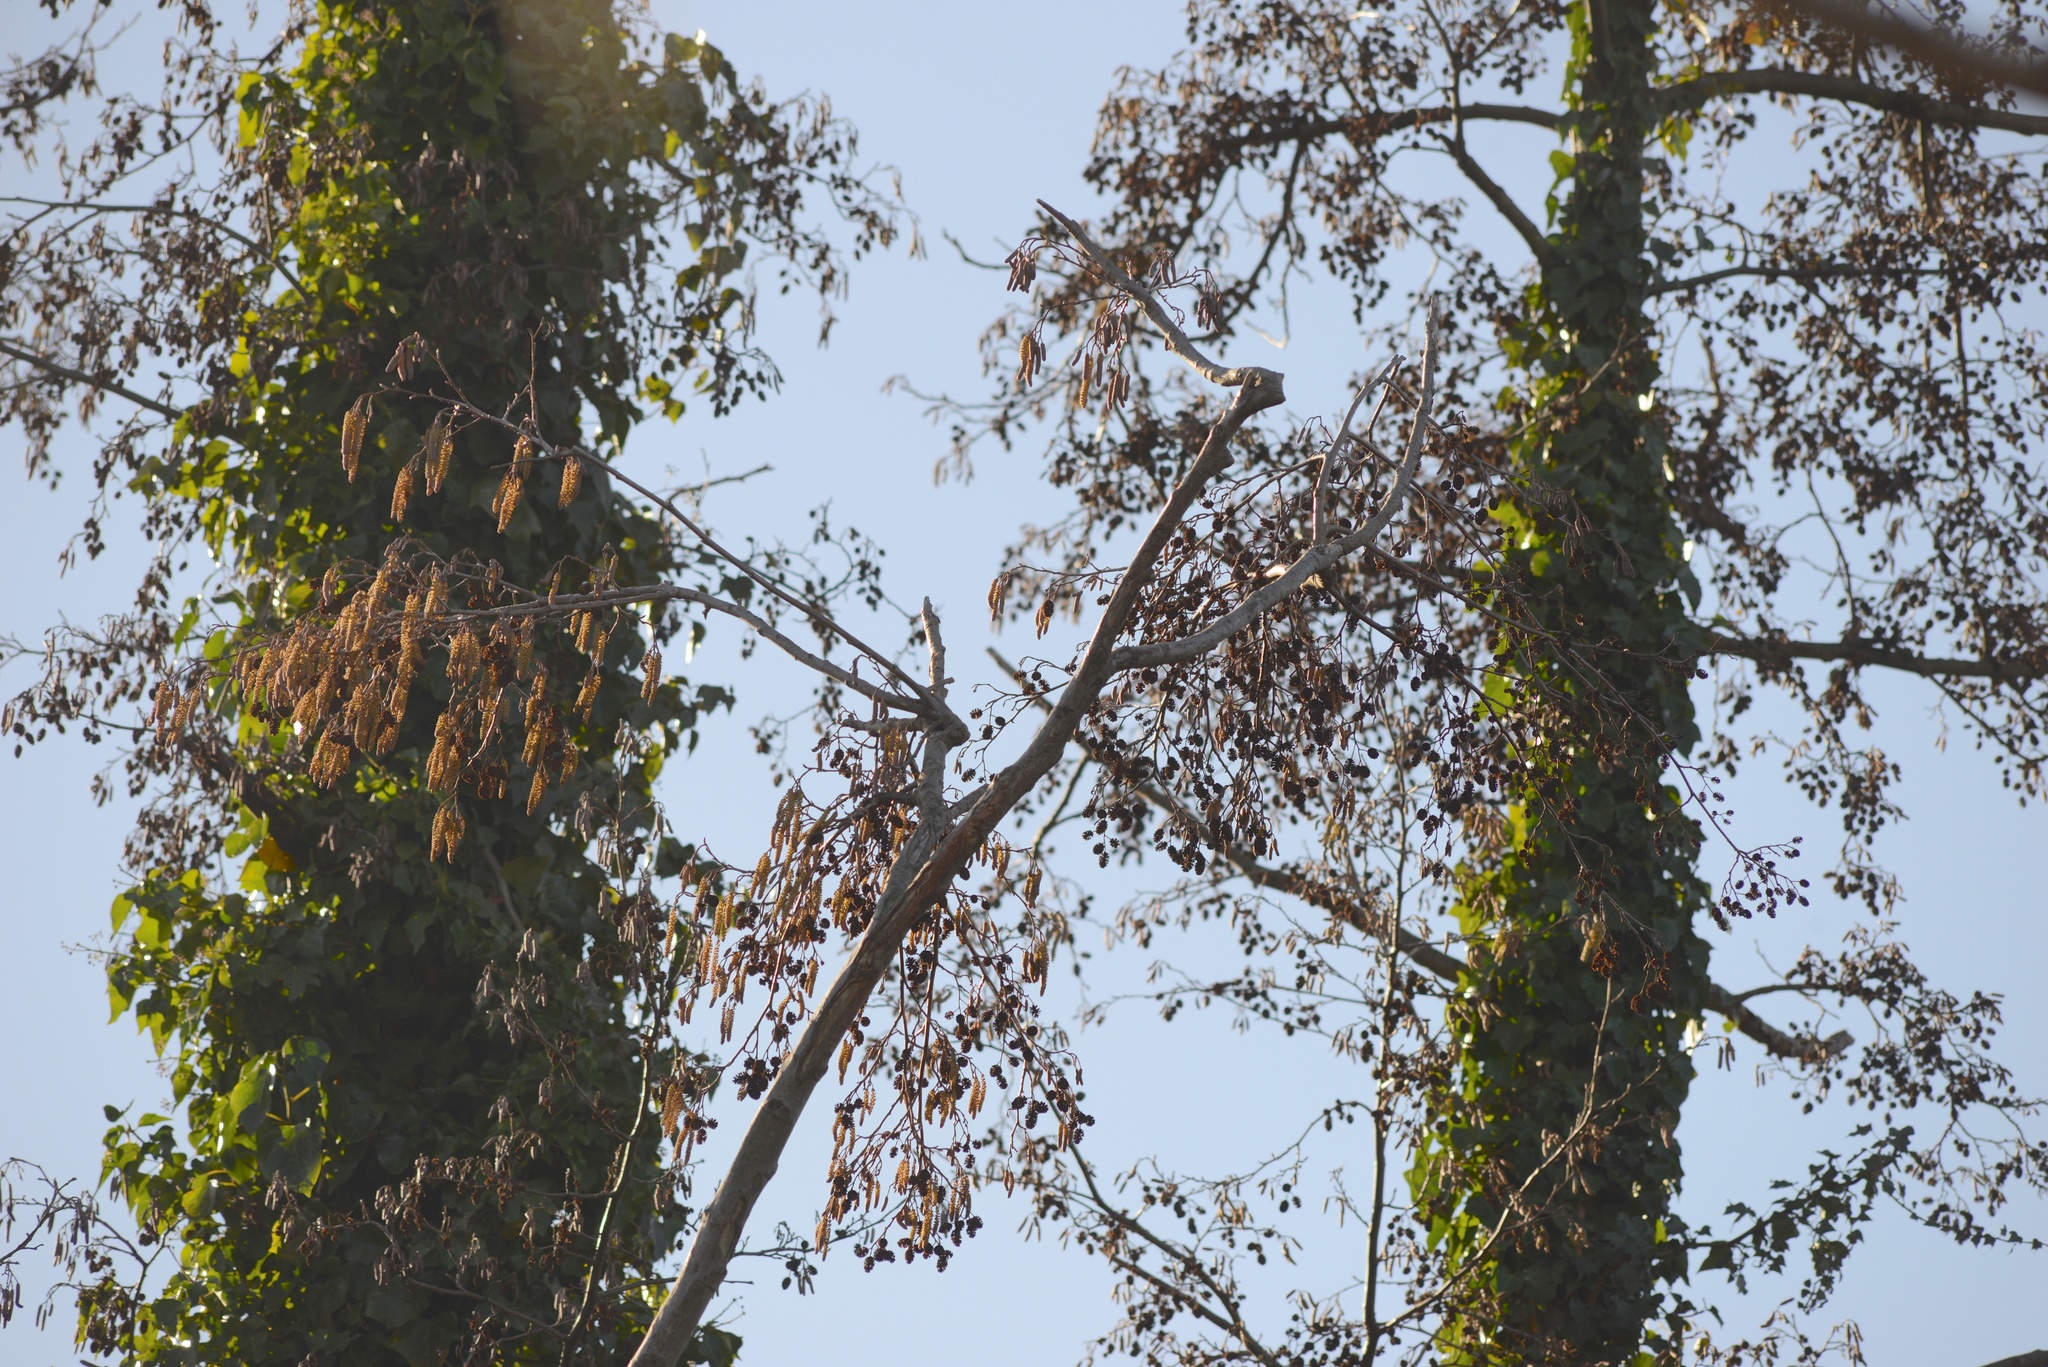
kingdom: Plantae
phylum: Tracheophyta
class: Magnoliopsida
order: Fagales
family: Betulaceae
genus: Alnus
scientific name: Alnus glutinosa
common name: Black alder
